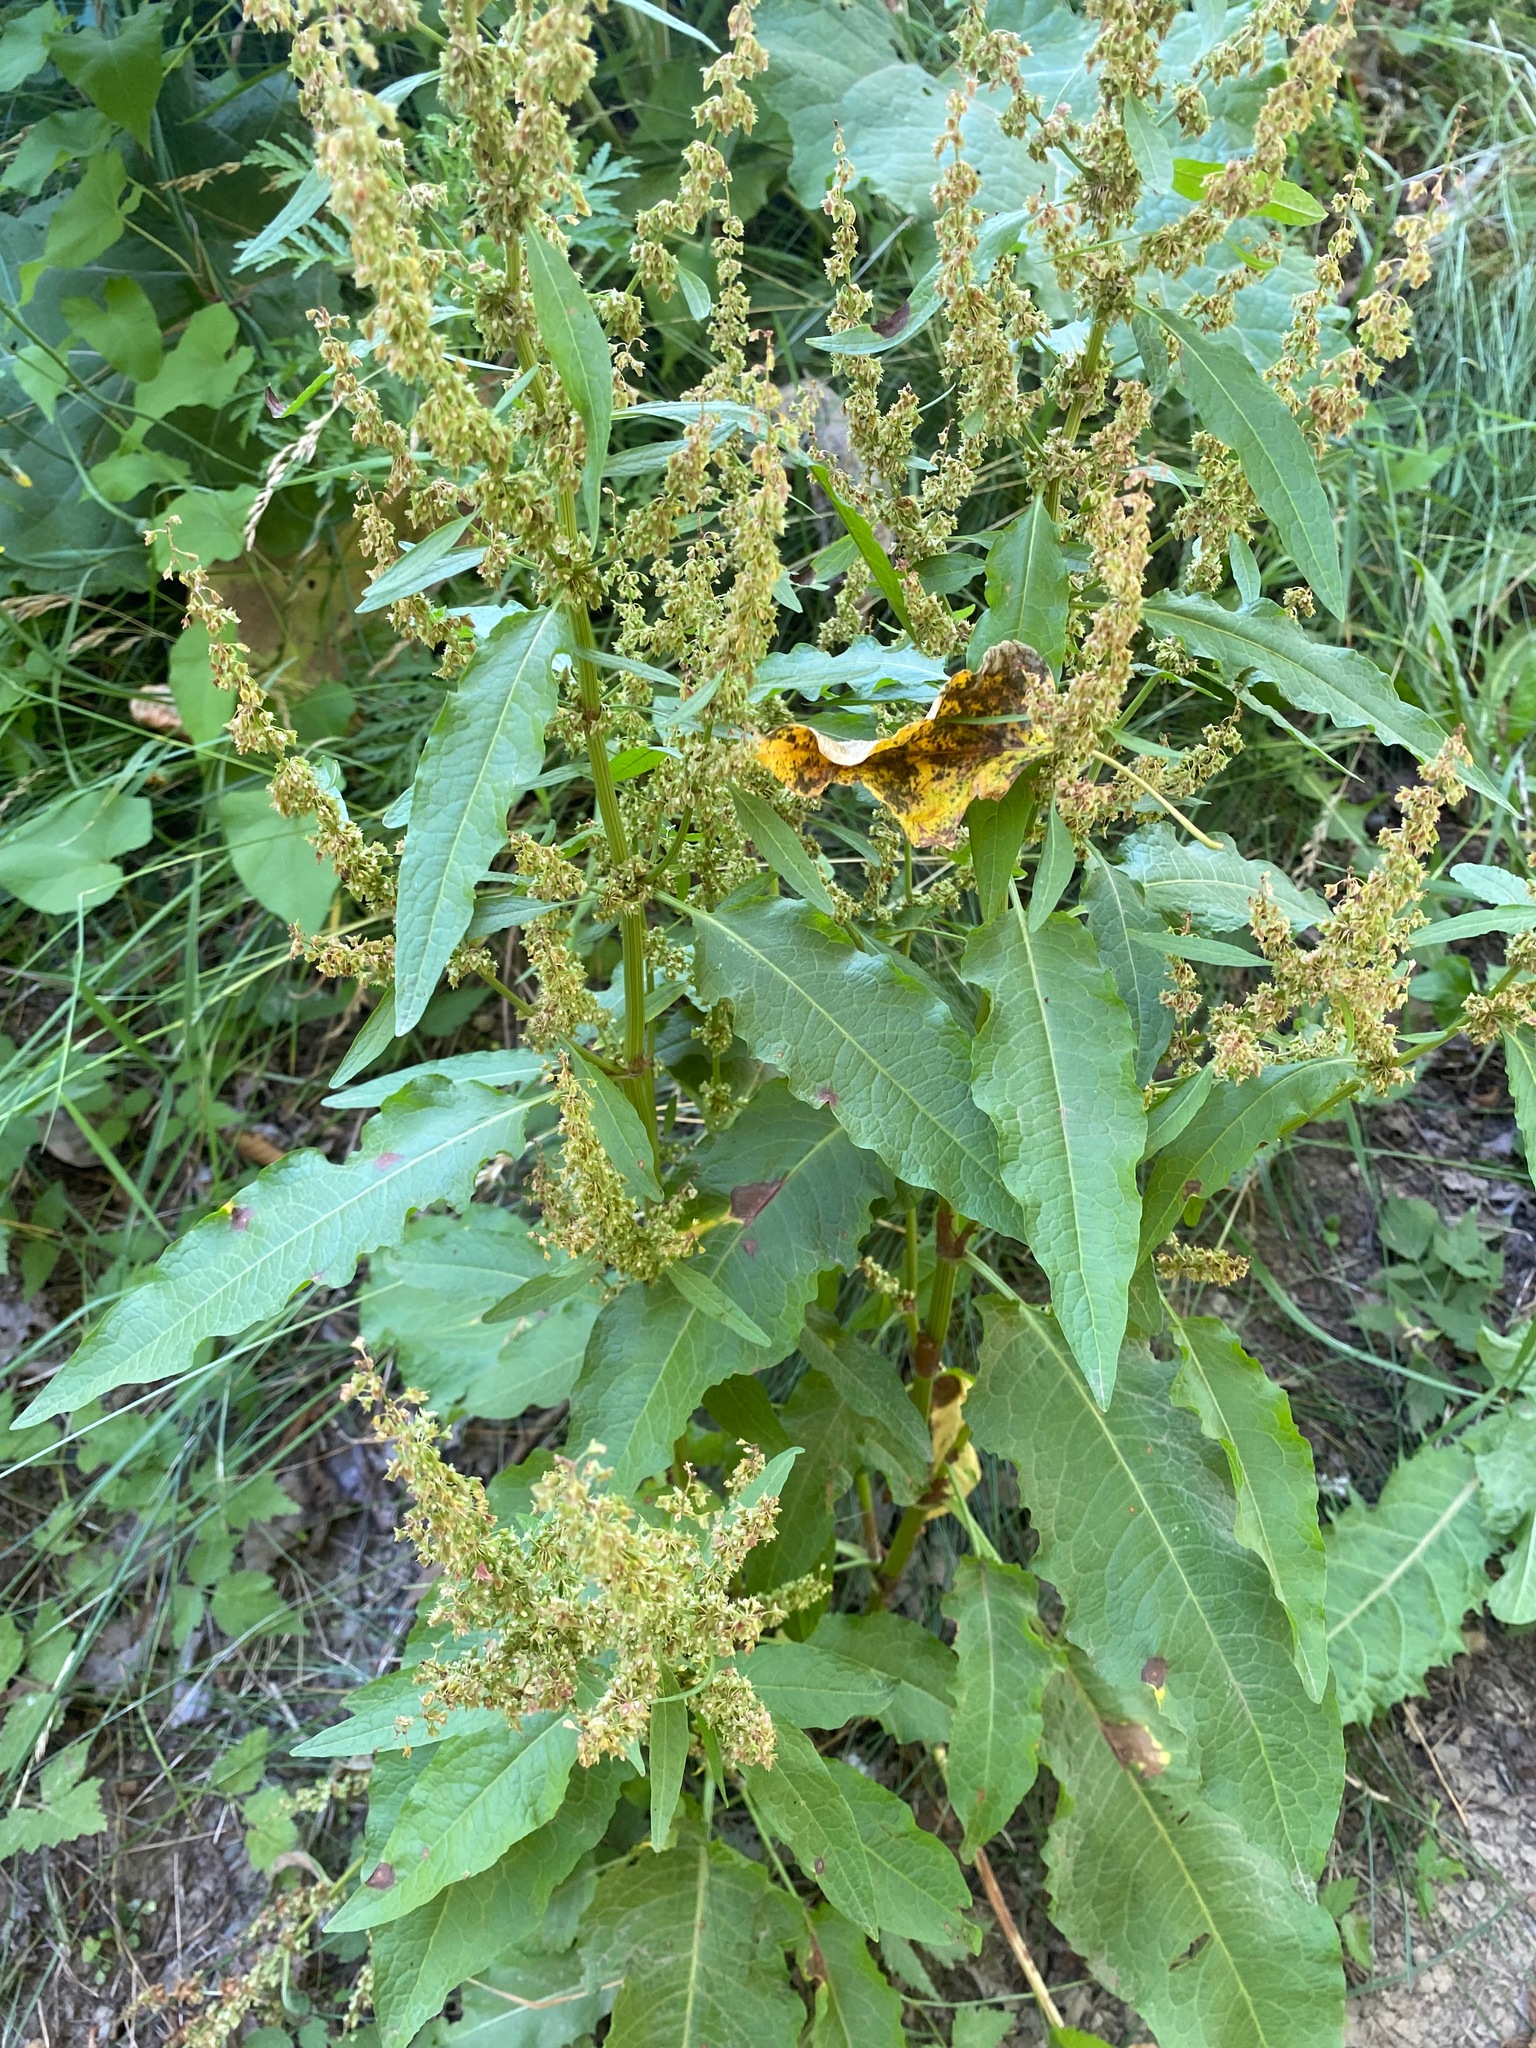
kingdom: Plantae
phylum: Tracheophyta
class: Magnoliopsida
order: Caryophyllales
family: Polygonaceae
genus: Rumex
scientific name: Rumex obtusifolius
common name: Bitter dock
